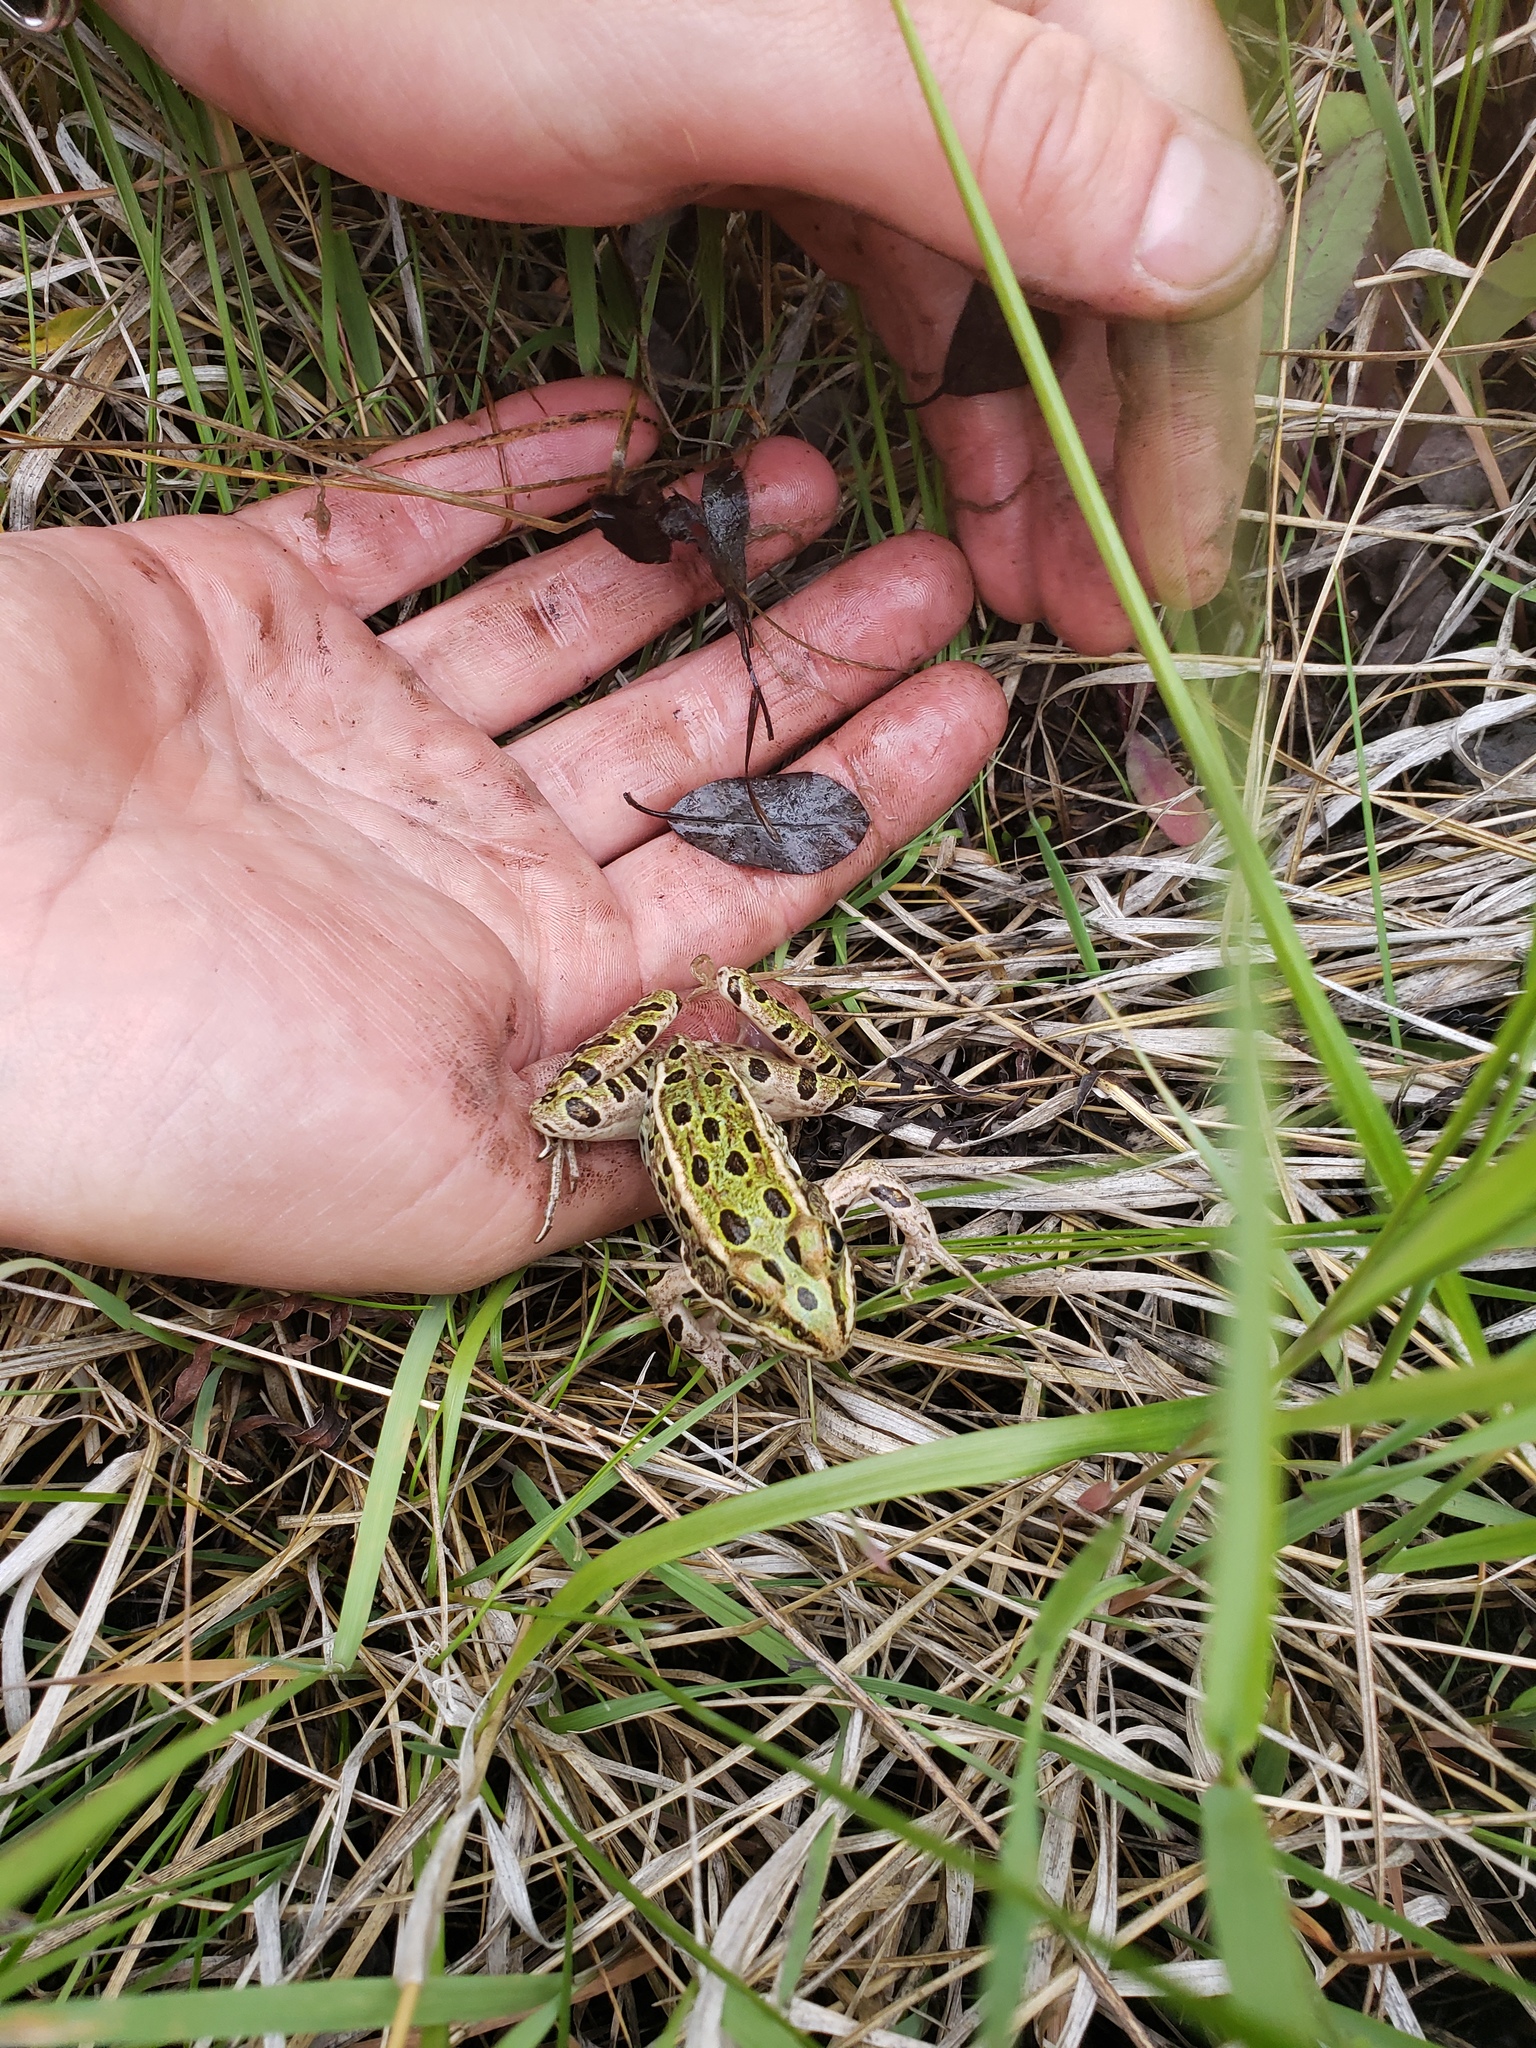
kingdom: Animalia
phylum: Chordata
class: Amphibia
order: Anura
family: Ranidae
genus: Lithobates
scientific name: Lithobates pipiens
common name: Northern leopard frog
